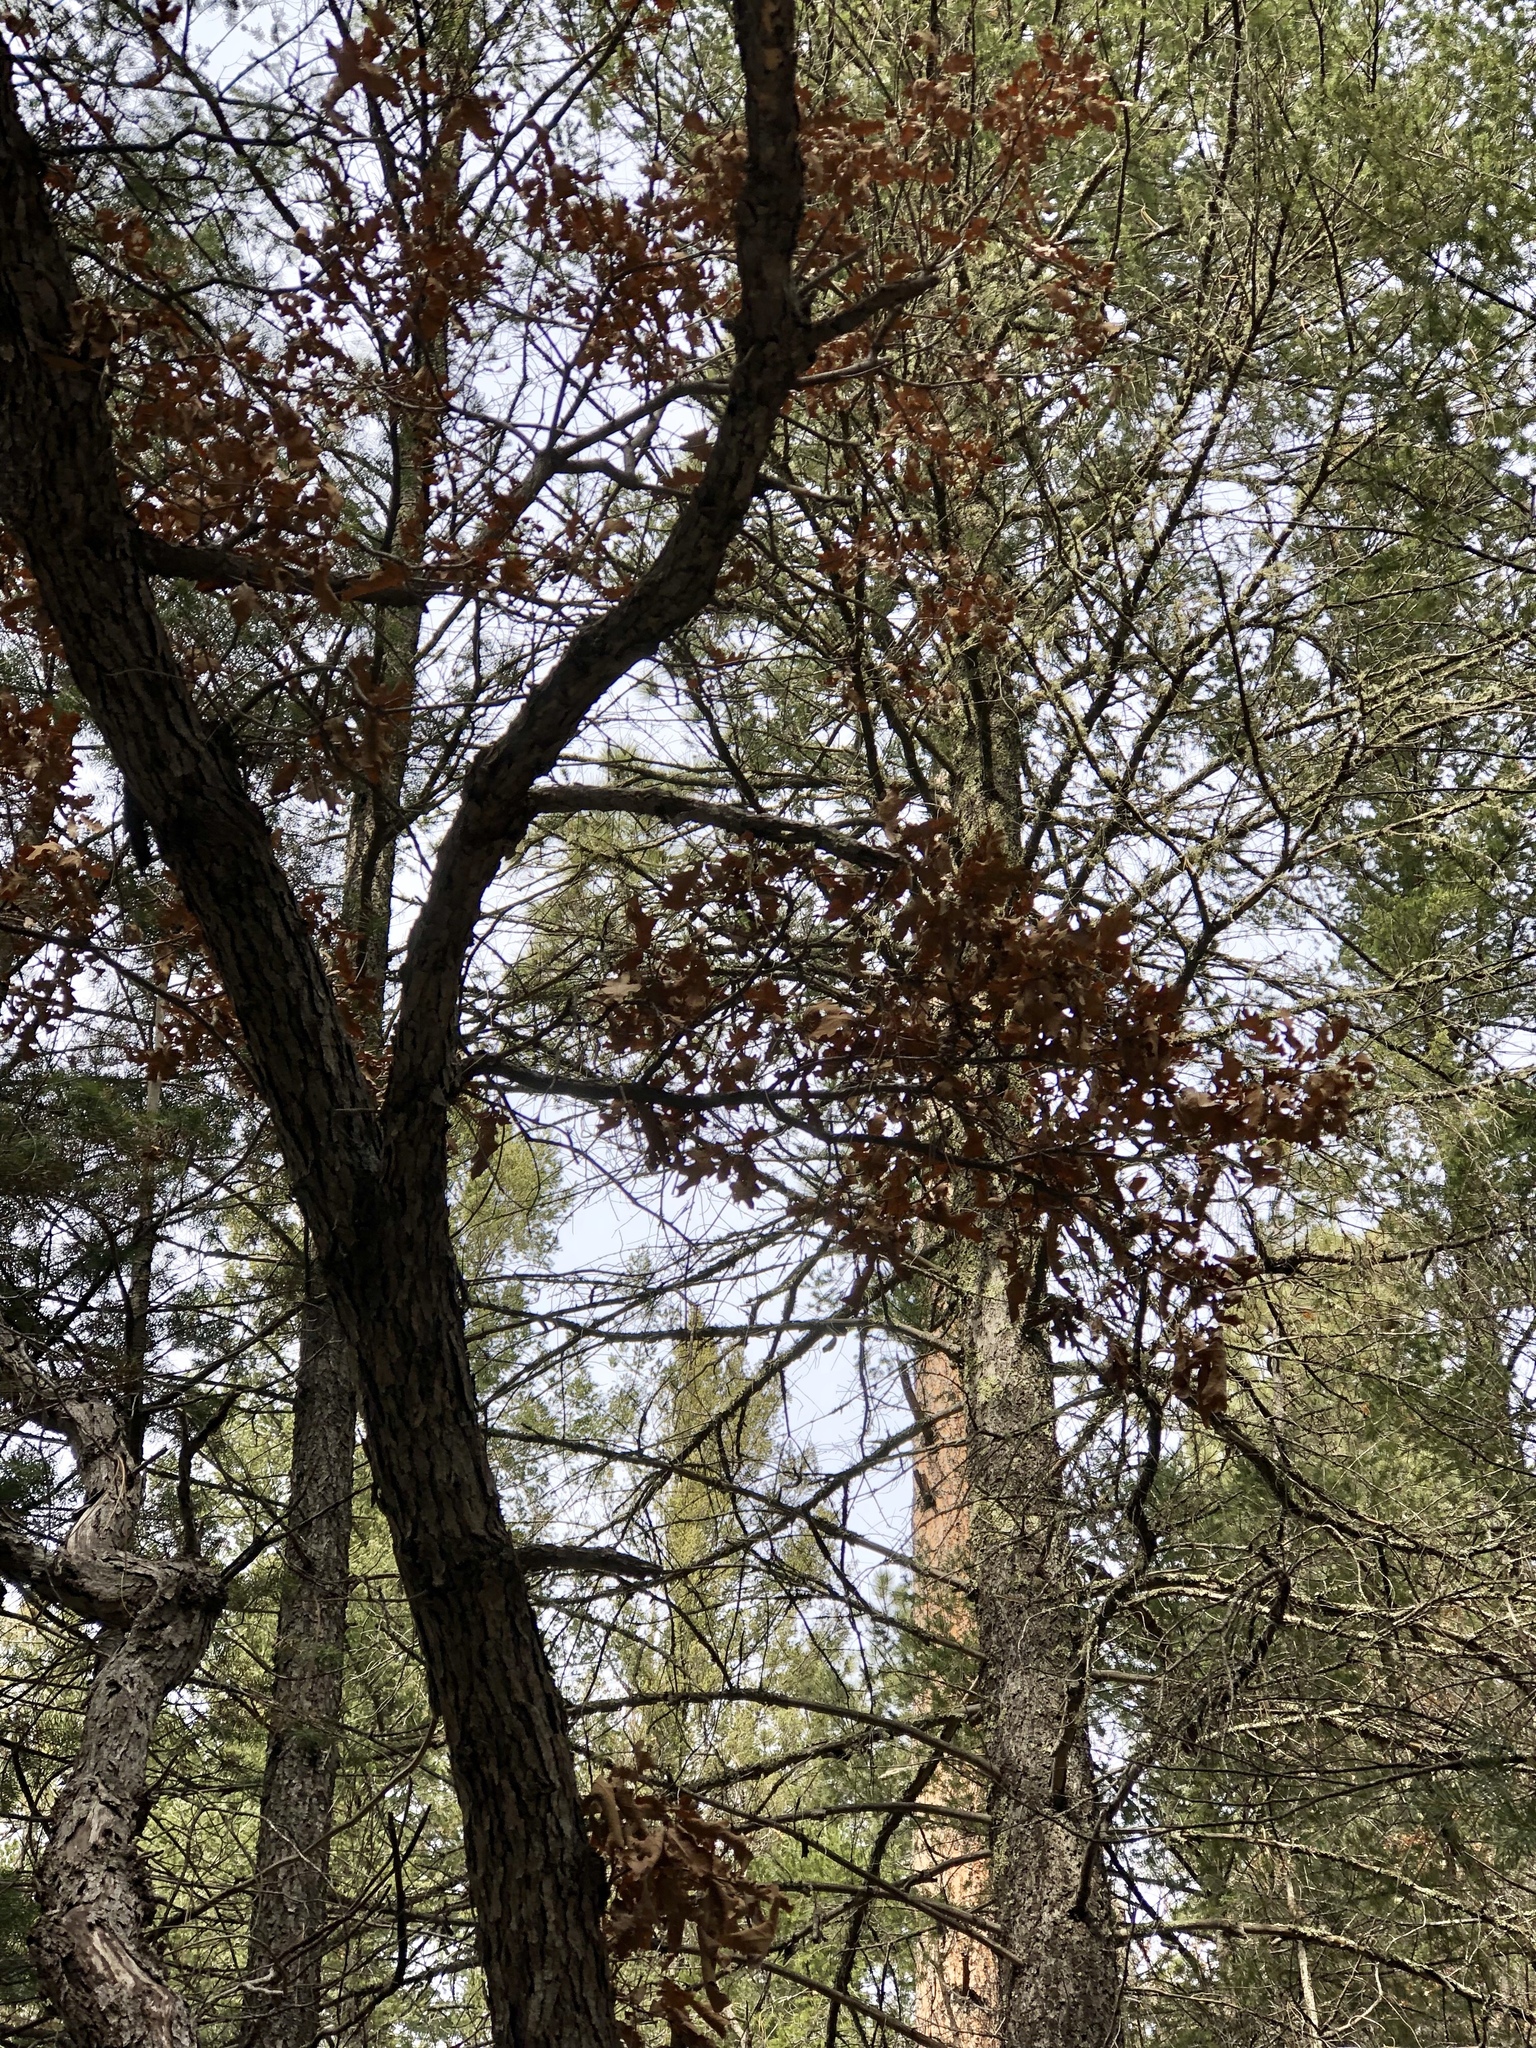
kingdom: Plantae
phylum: Tracheophyta
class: Magnoliopsida
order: Fagales
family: Fagaceae
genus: Quercus
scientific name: Quercus gambelii
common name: Gambel oak
